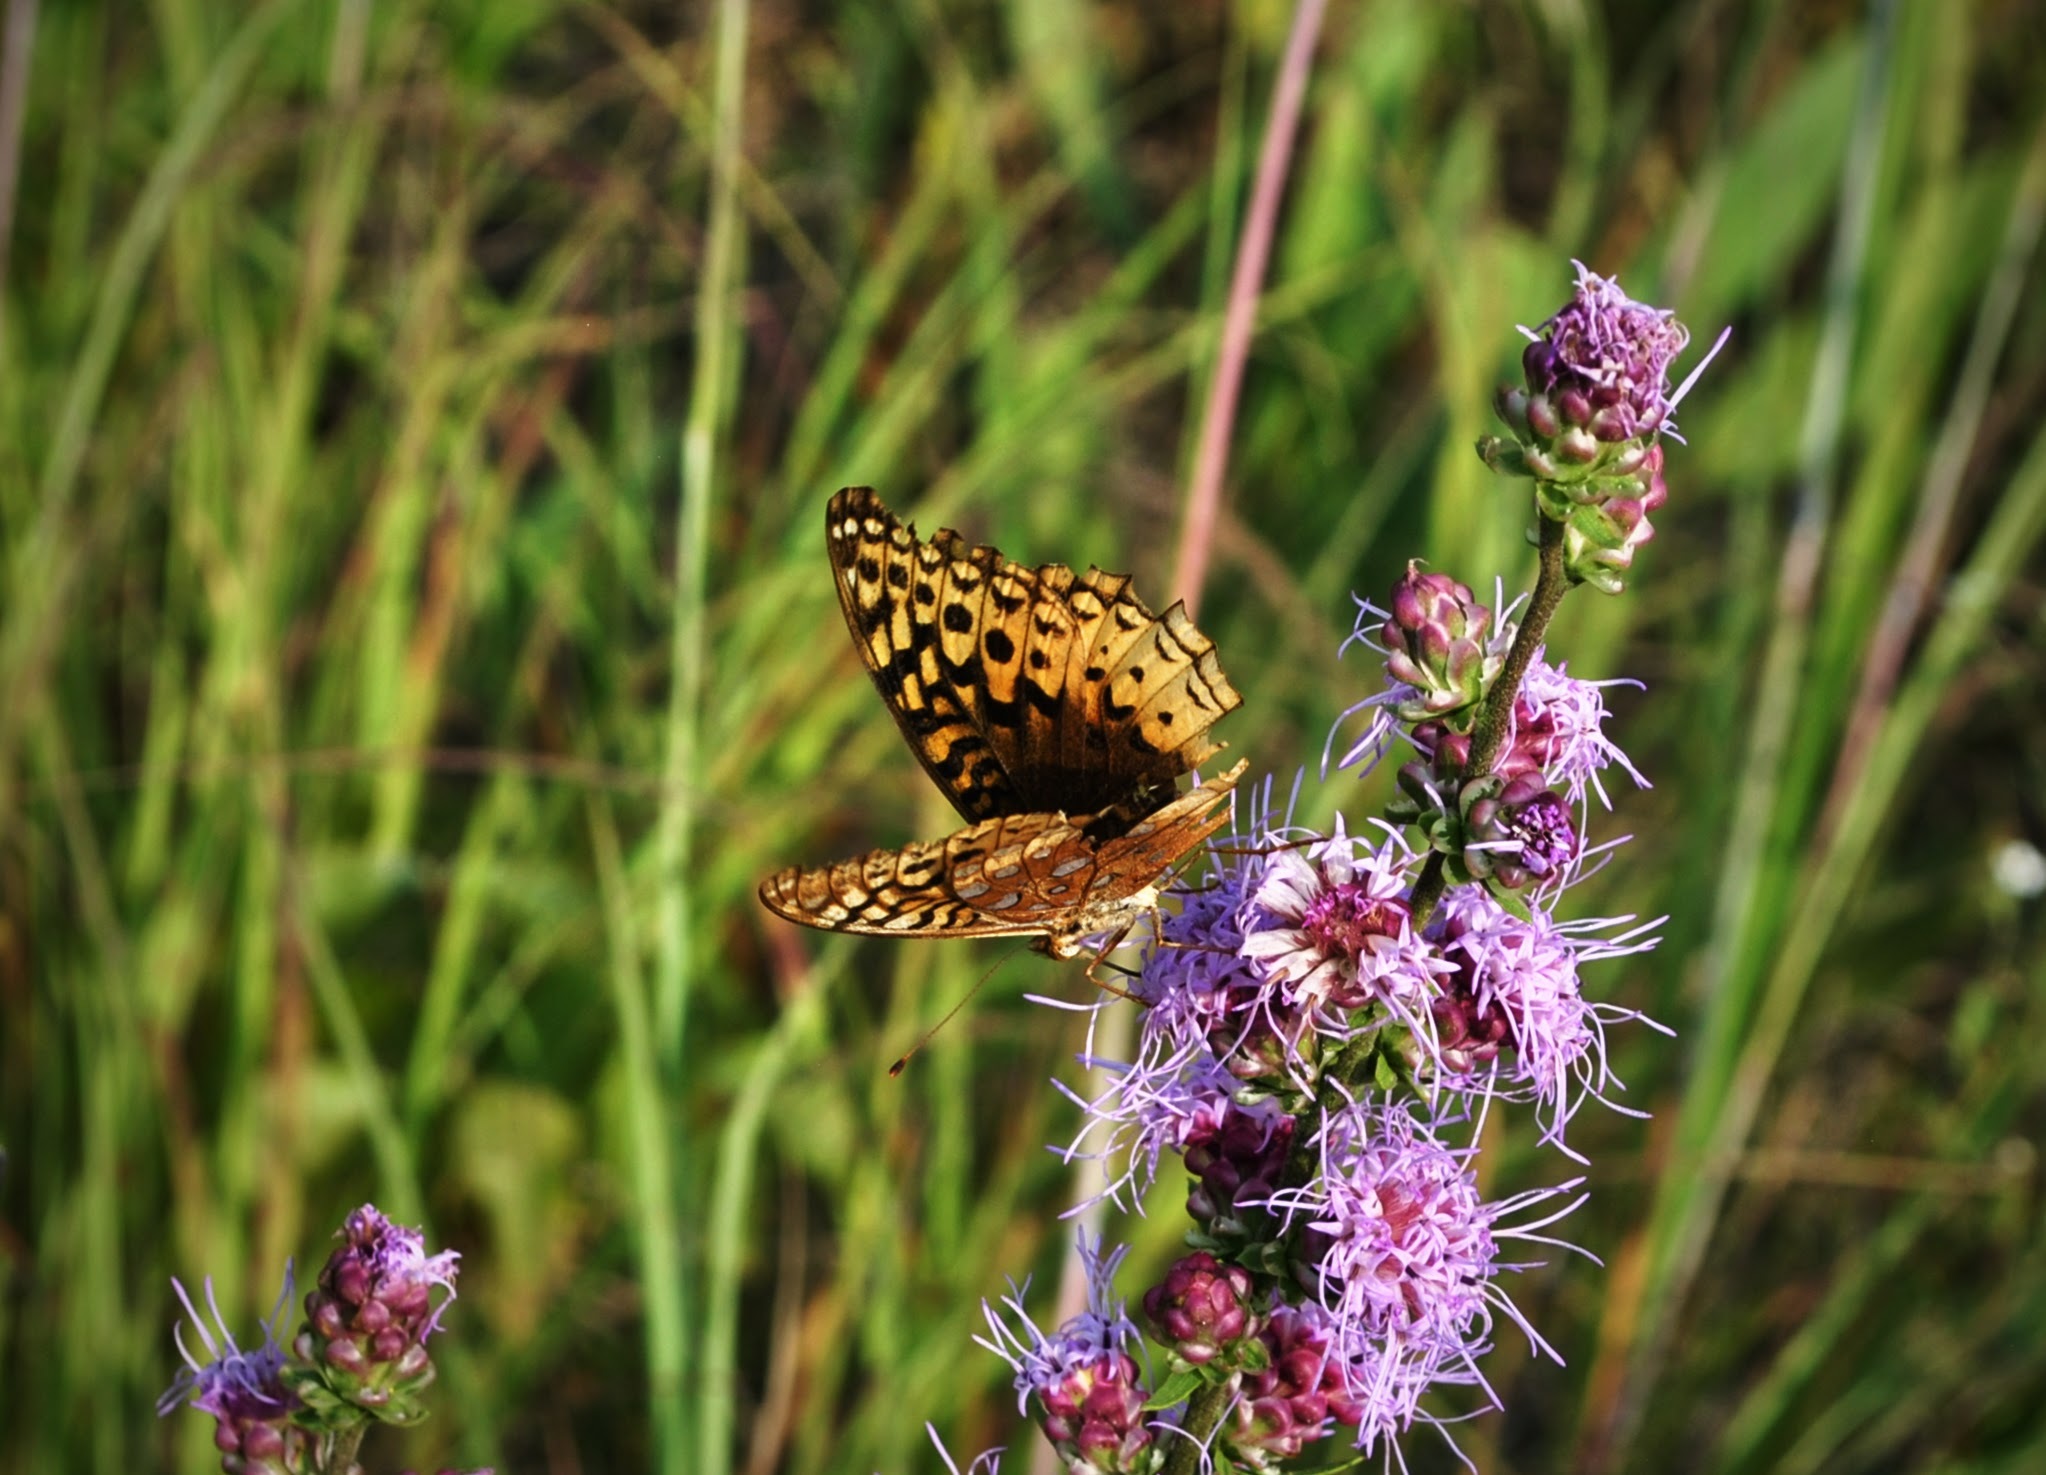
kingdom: Animalia
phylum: Arthropoda
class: Insecta
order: Lepidoptera
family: Nymphalidae
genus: Speyeria
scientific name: Speyeria cybele
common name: Great spangled fritillary
